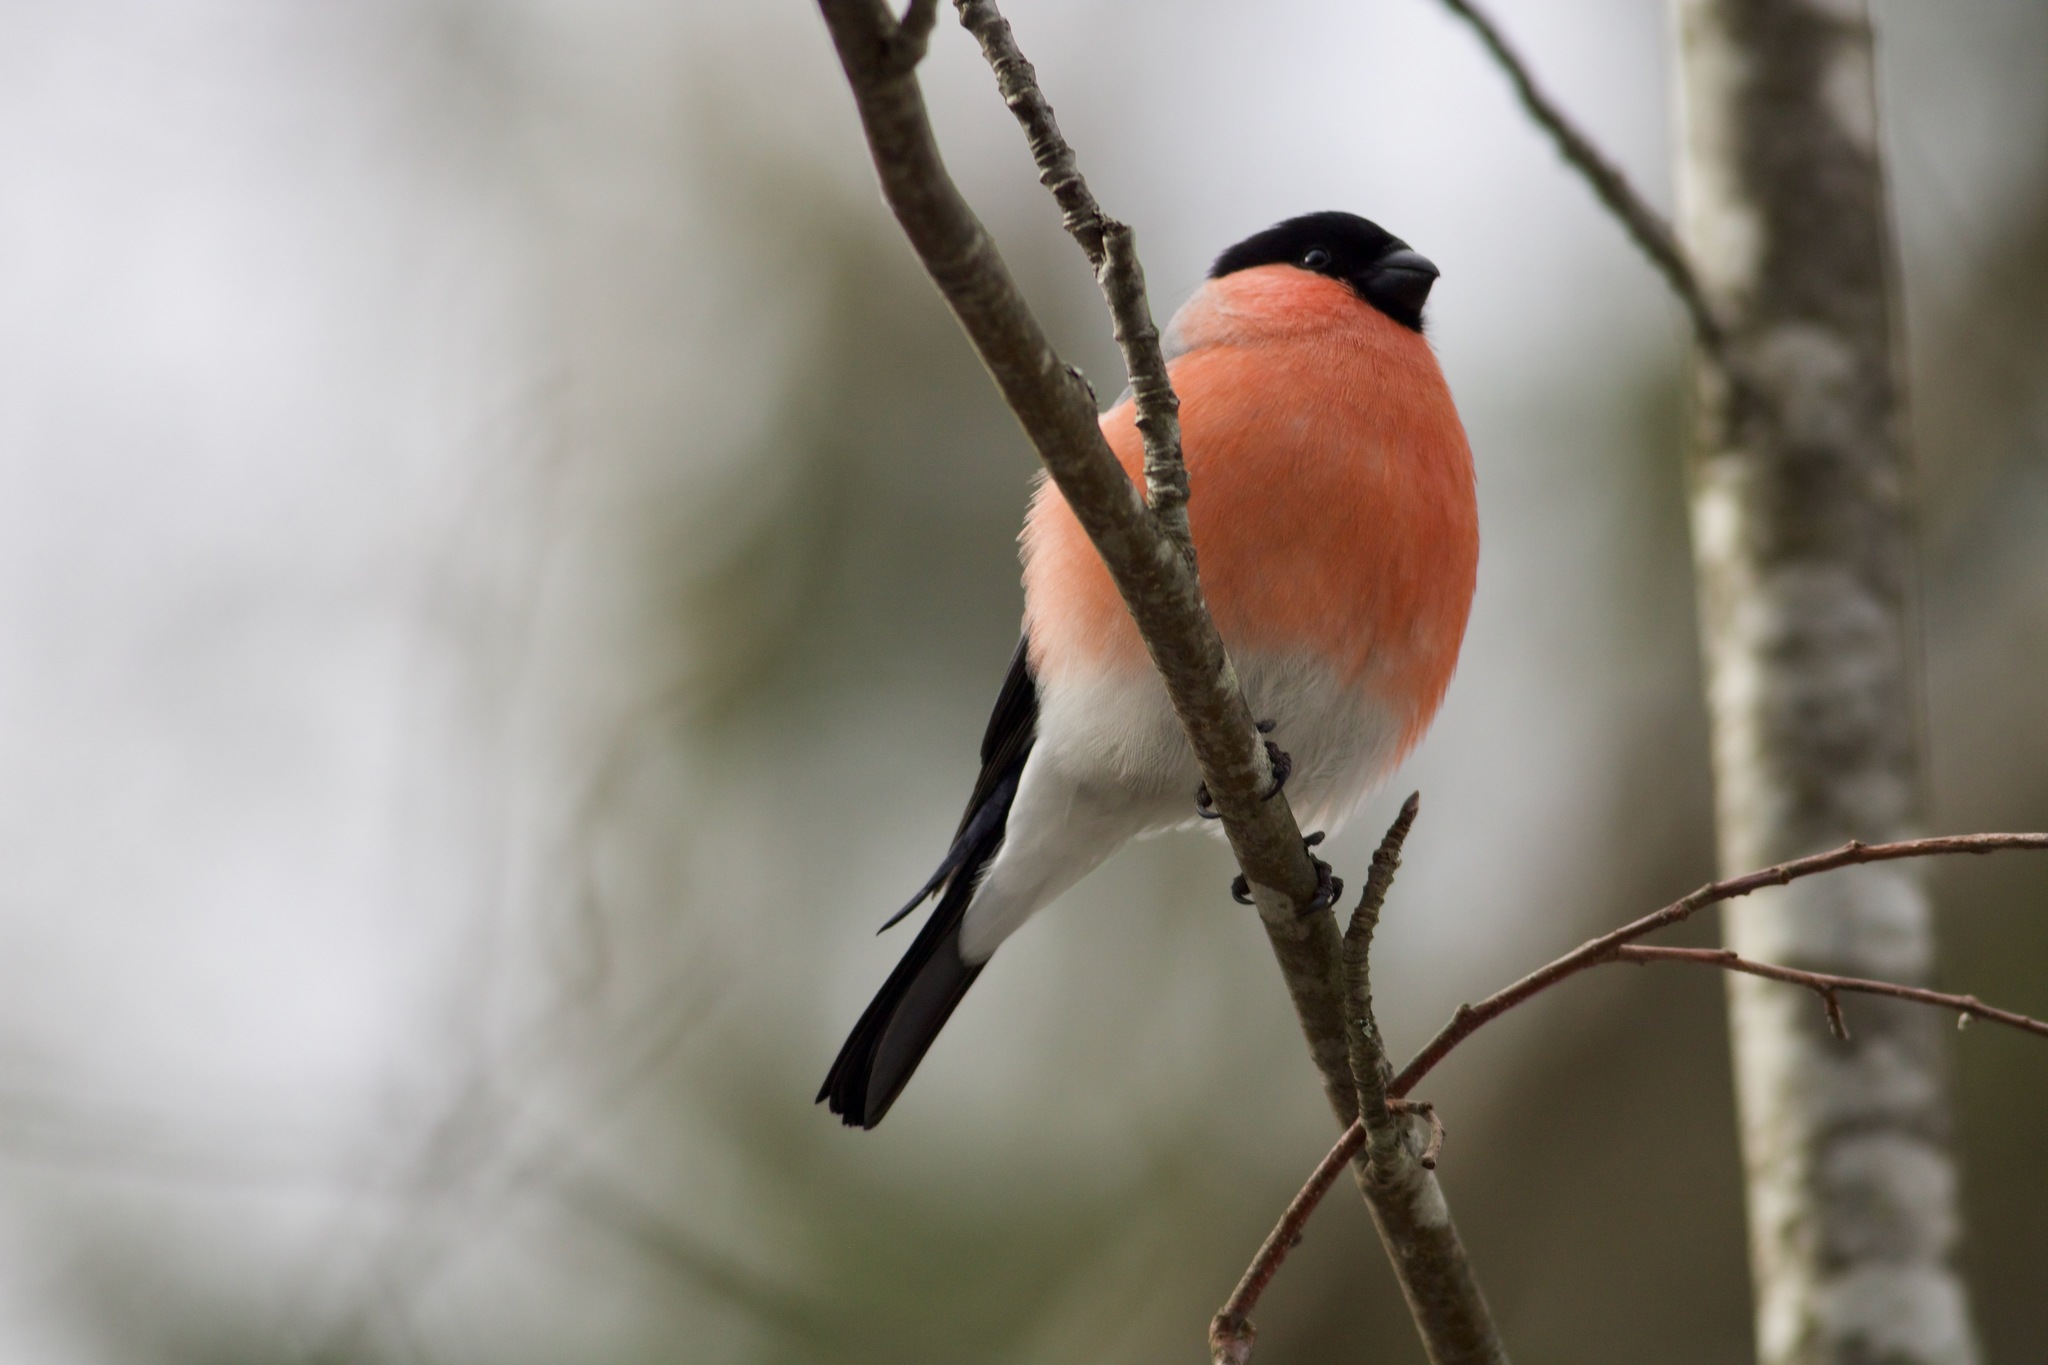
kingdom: Animalia
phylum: Chordata
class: Aves
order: Passeriformes
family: Fringillidae
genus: Pyrrhula
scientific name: Pyrrhula pyrrhula
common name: Eurasian bullfinch
